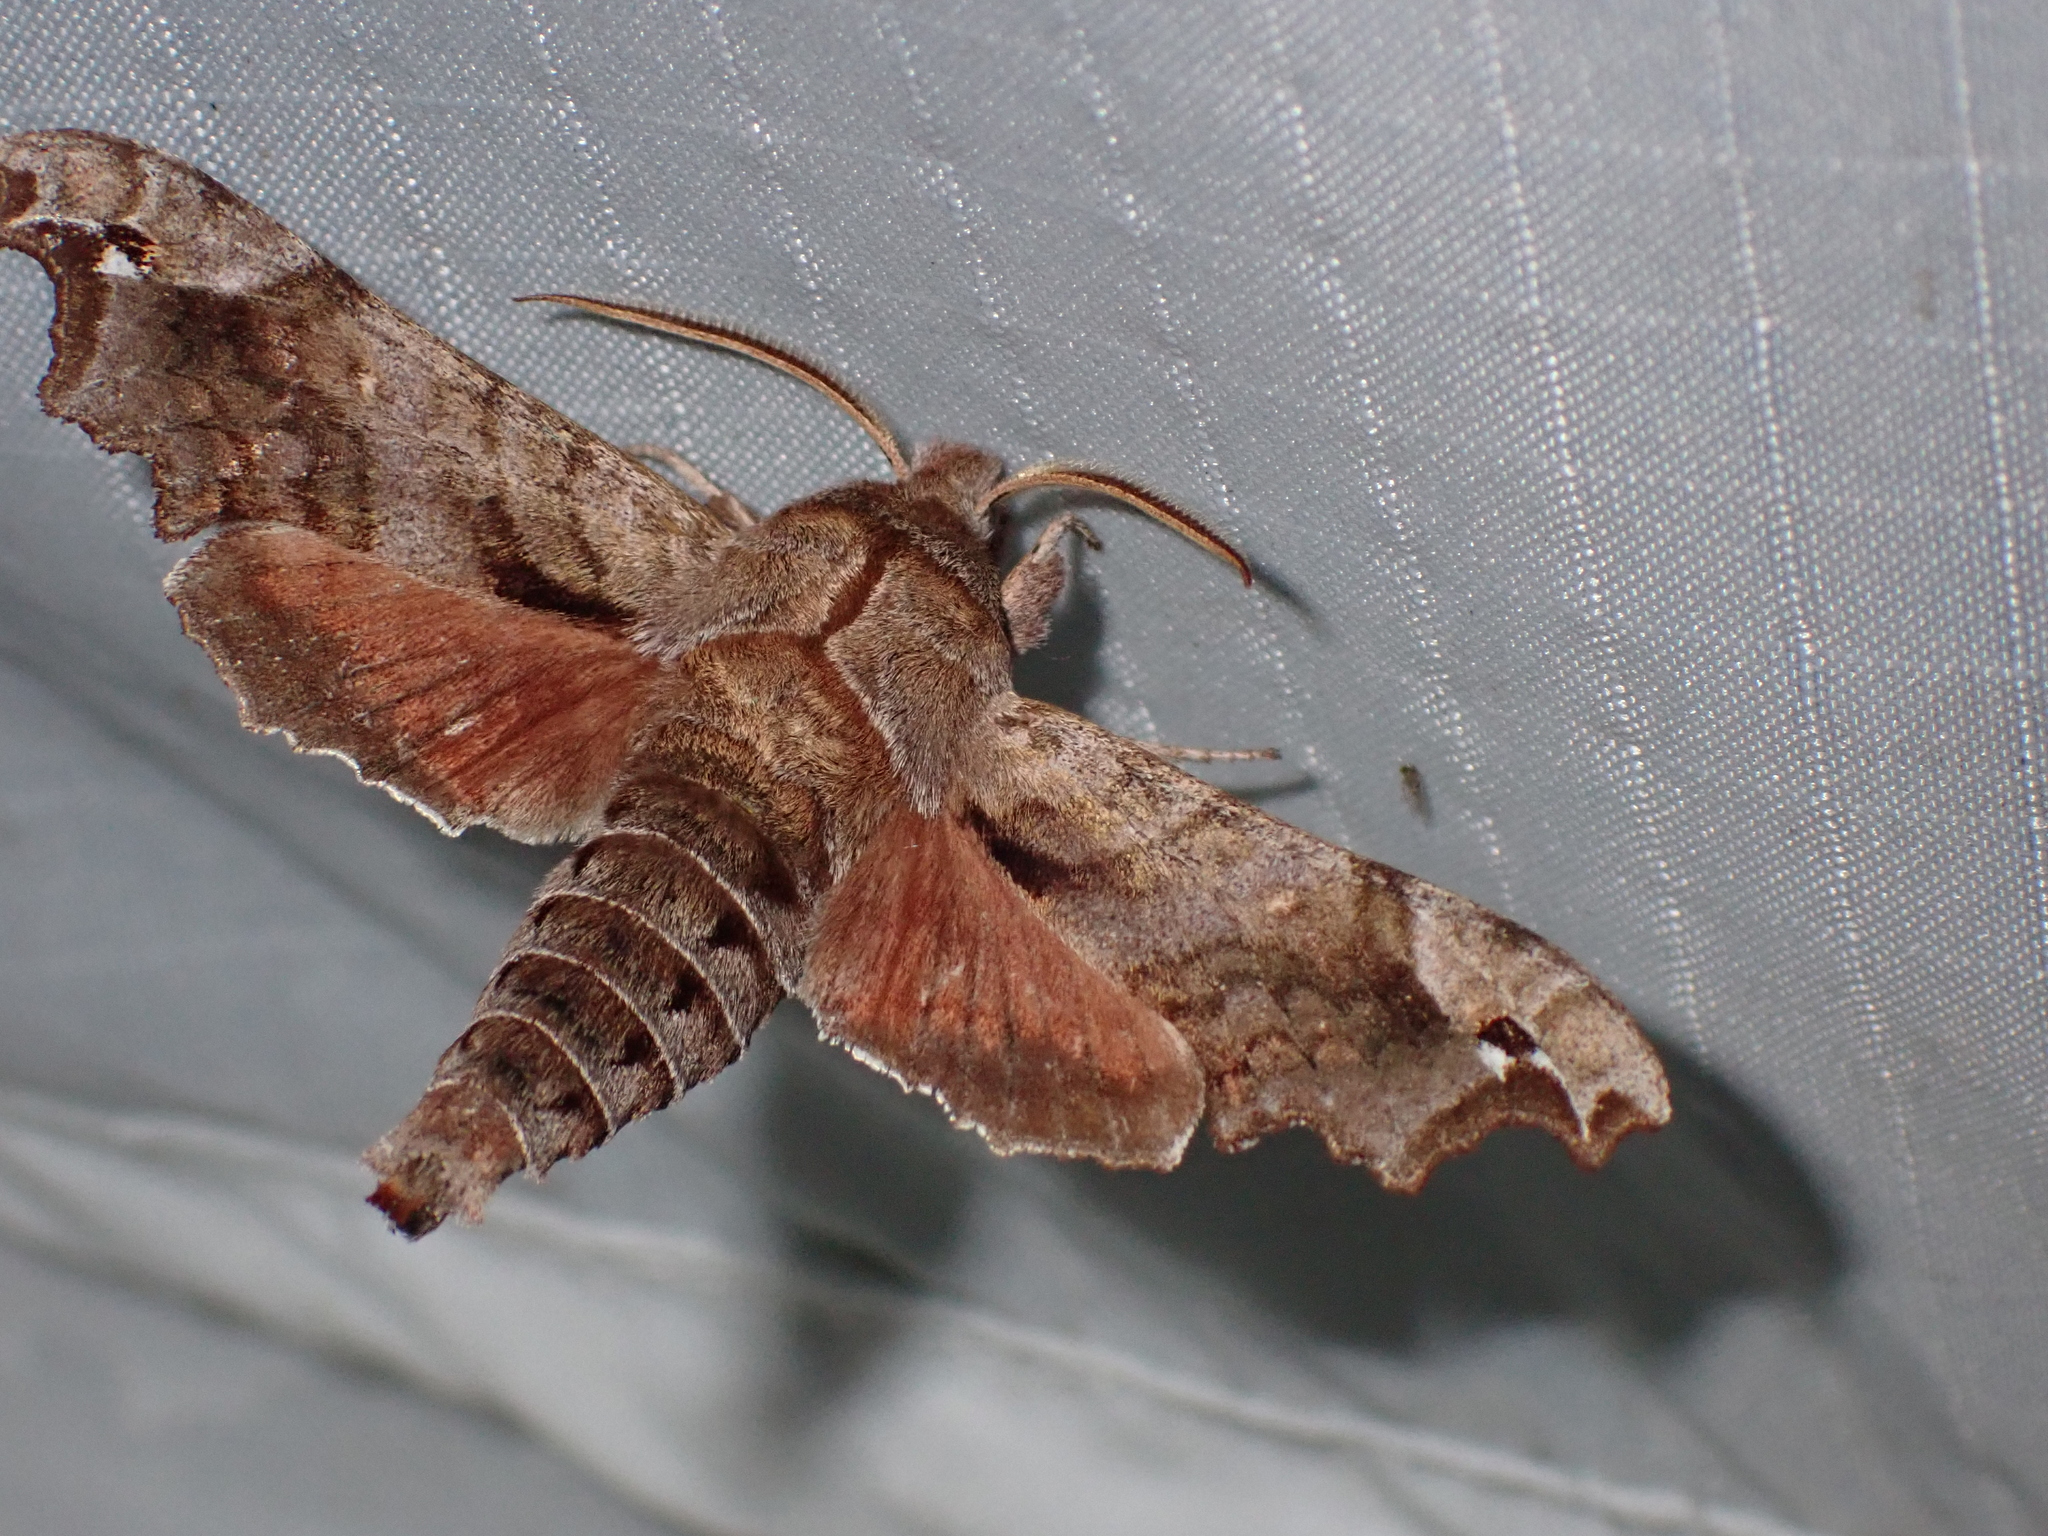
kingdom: Animalia
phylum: Arthropoda
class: Insecta
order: Lepidoptera
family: Sphingidae
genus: Deidamia
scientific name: Deidamia inscriptum
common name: Lettered sphinx
